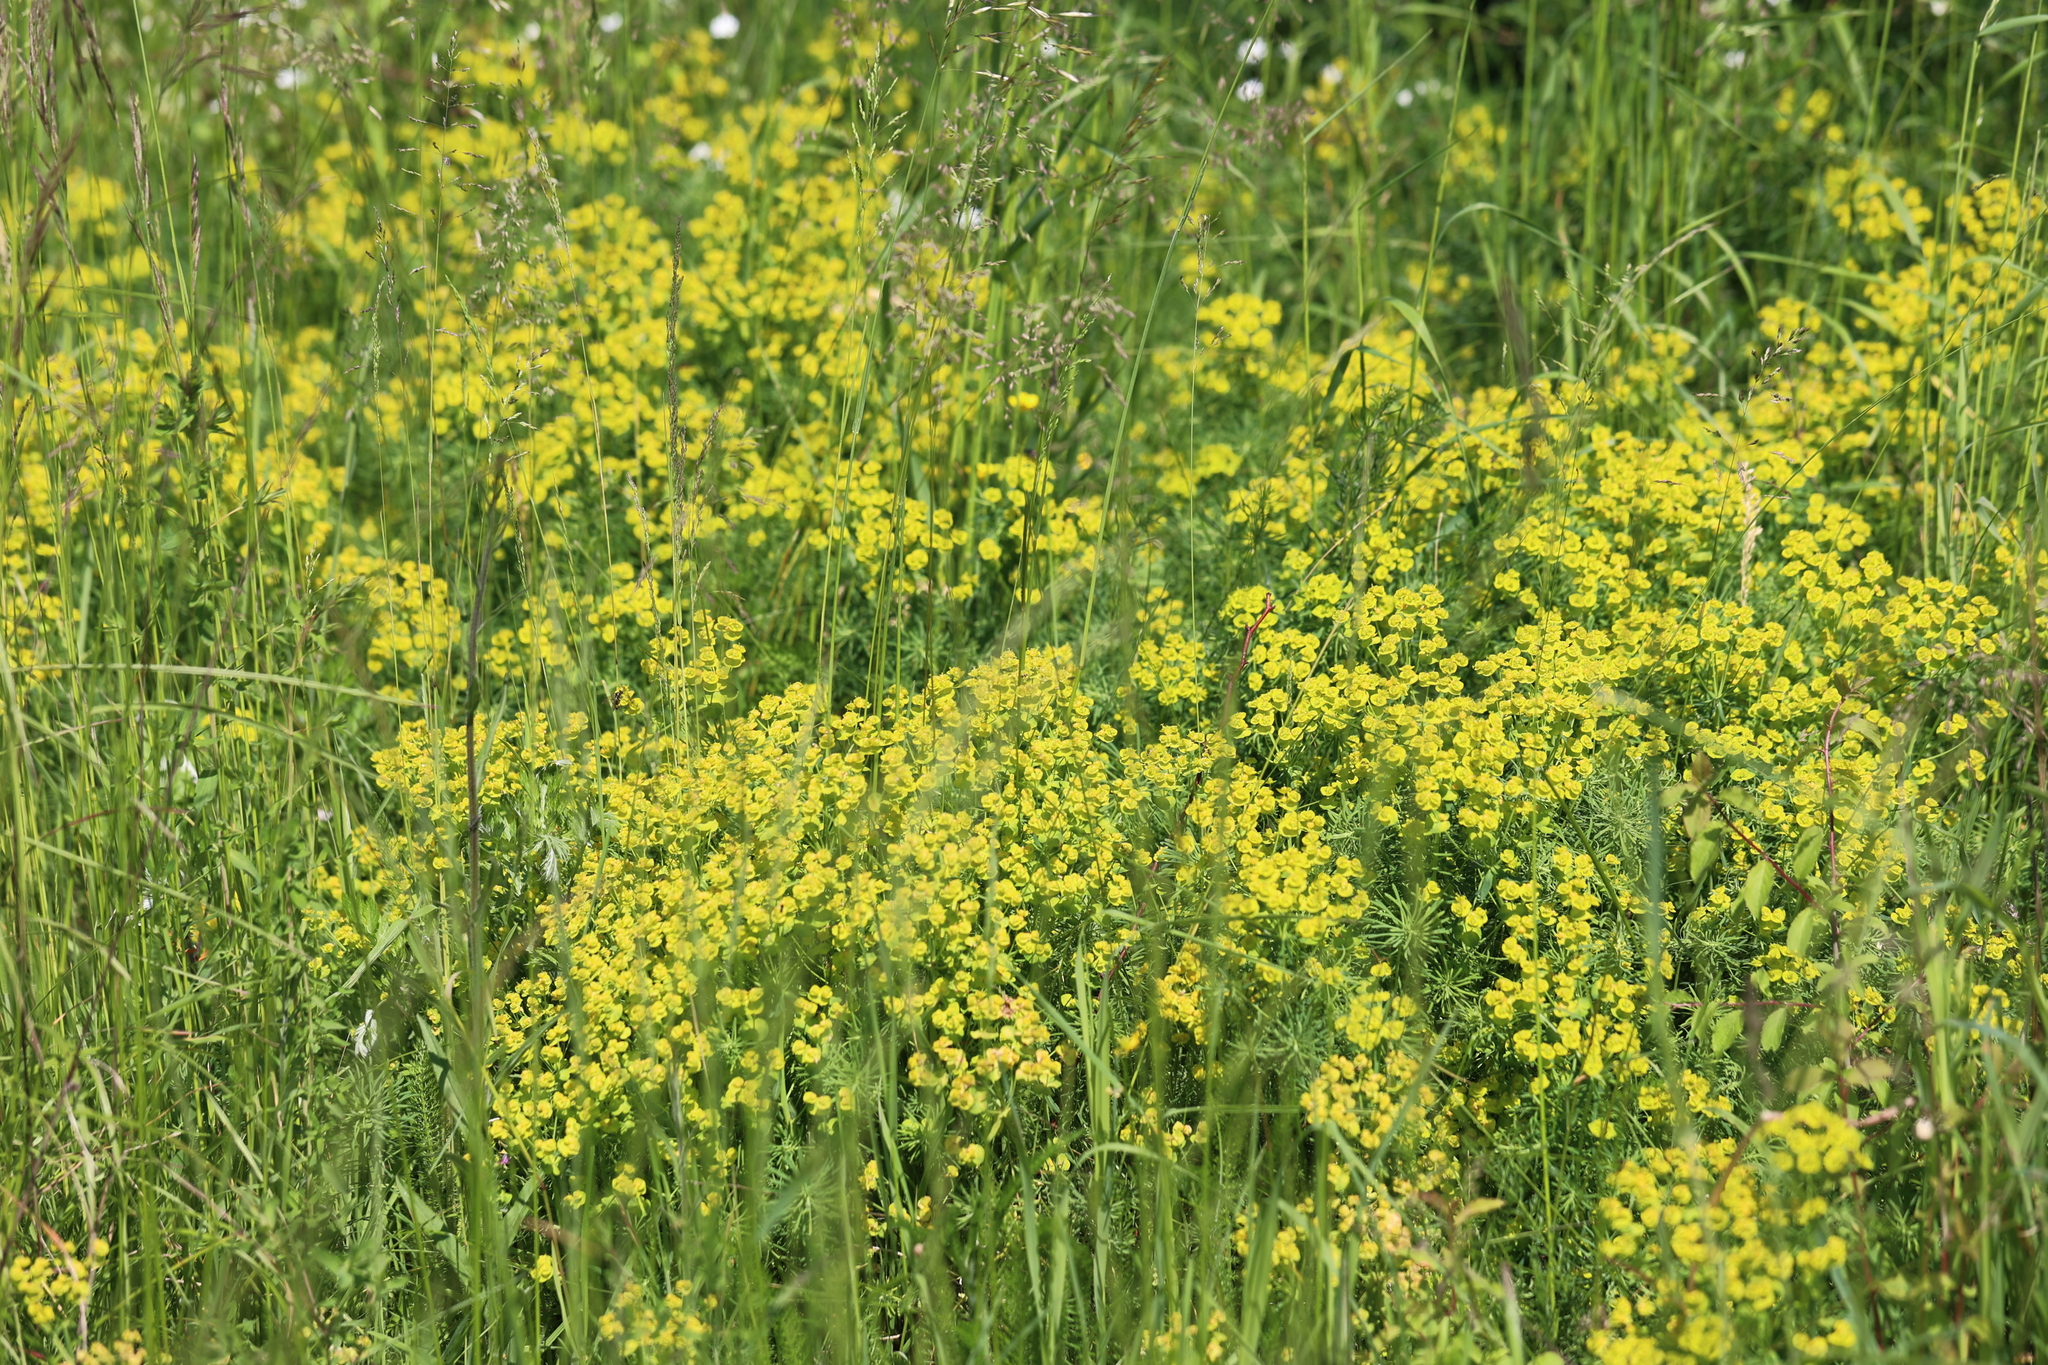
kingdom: Plantae
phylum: Tracheophyta
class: Magnoliopsida
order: Malpighiales
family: Euphorbiaceae
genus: Euphorbia
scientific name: Euphorbia cyparissias
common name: Cypress spurge
